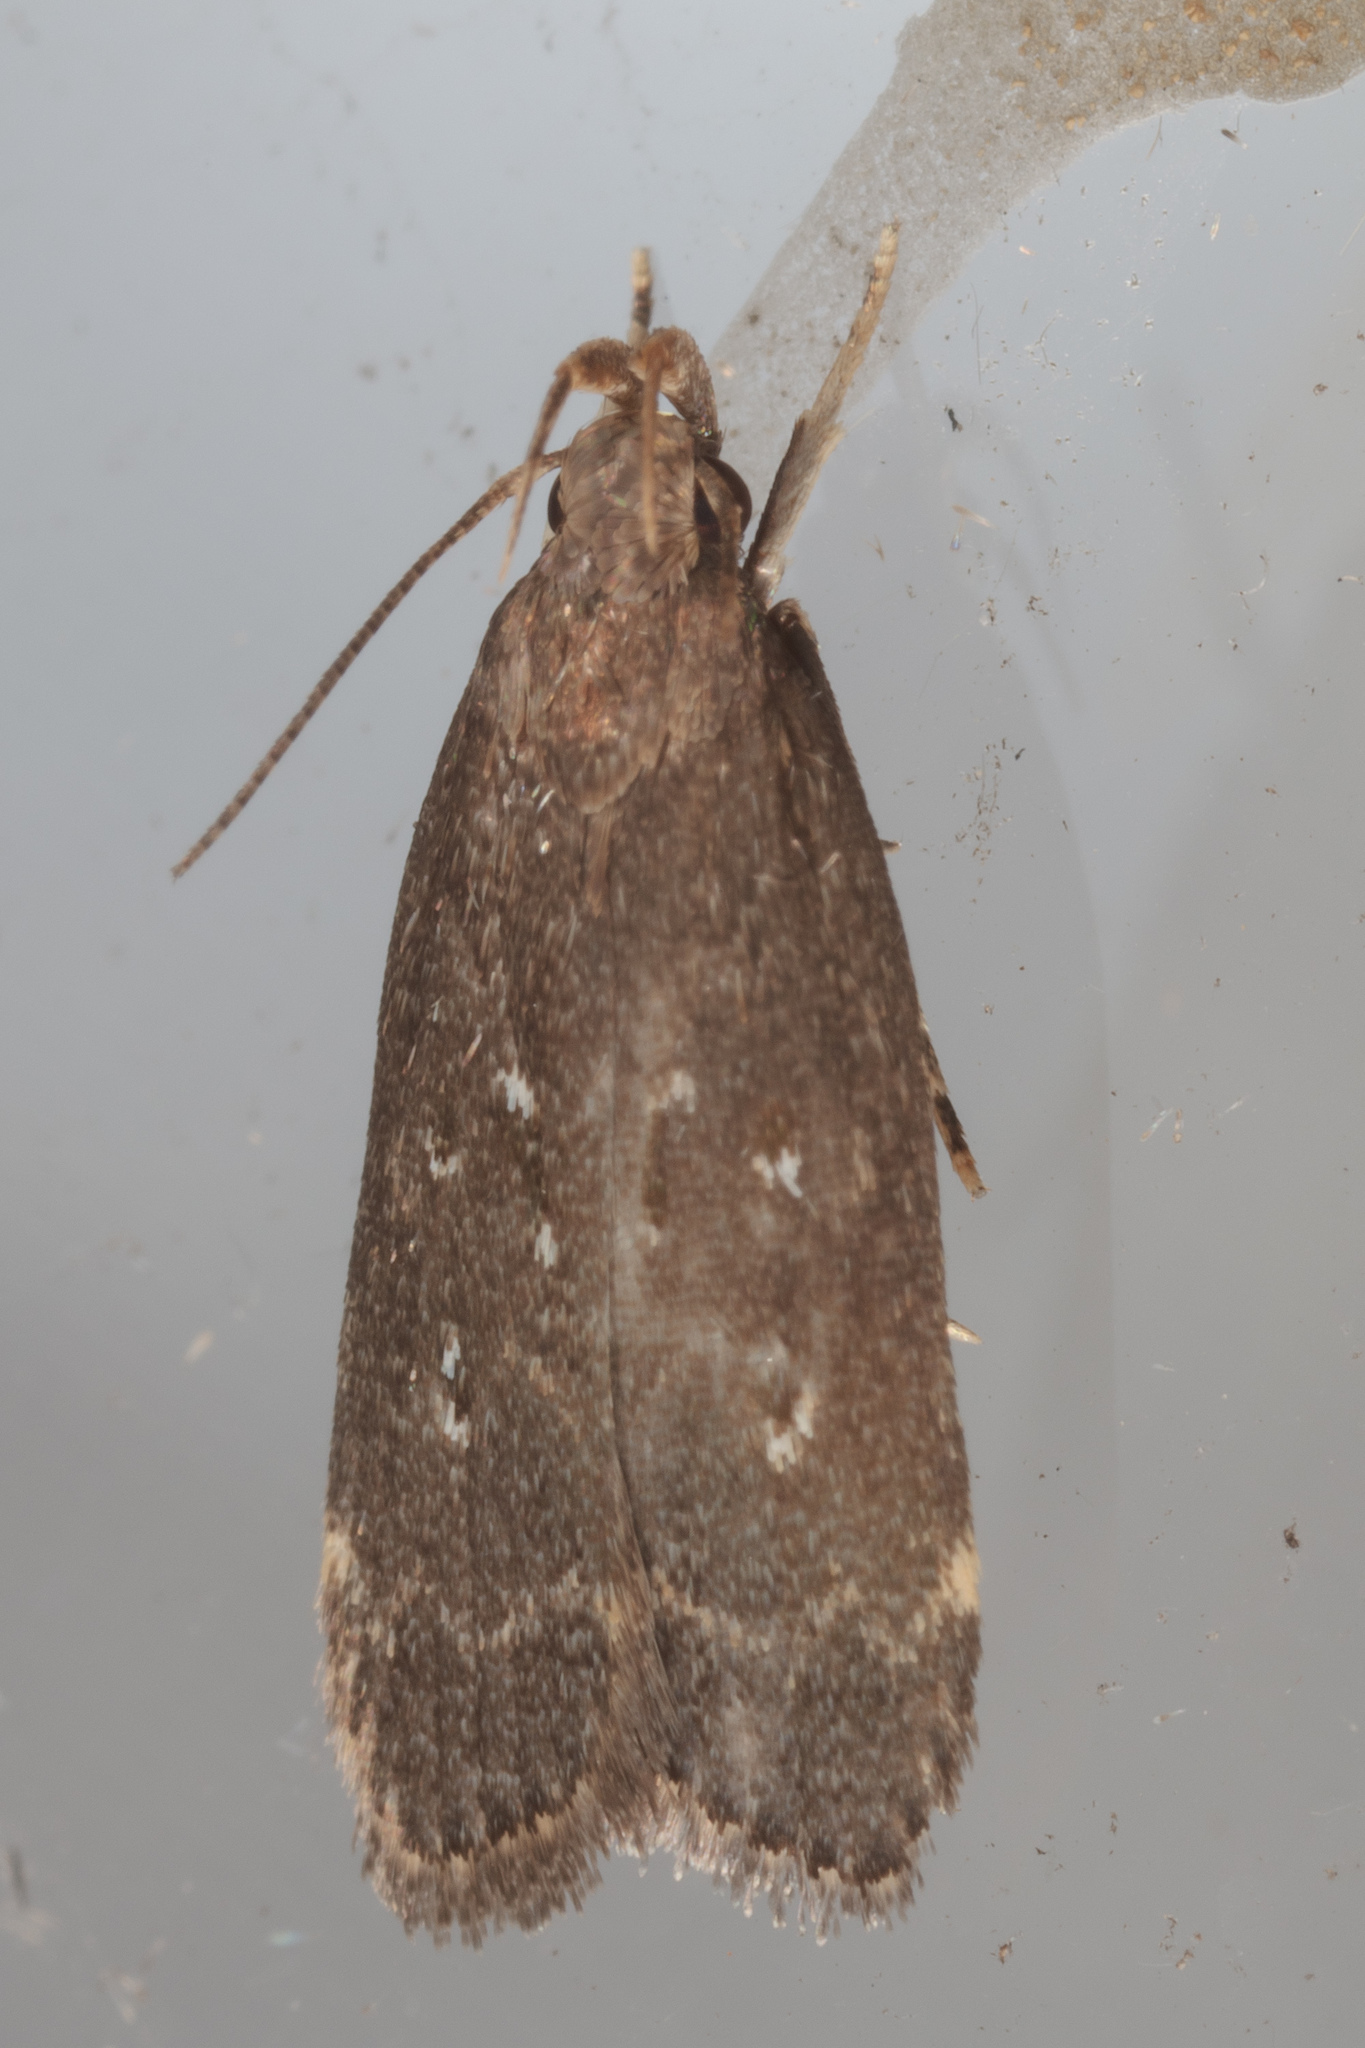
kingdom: Animalia
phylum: Arthropoda
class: Insecta
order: Lepidoptera
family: Gelechiidae
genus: Helcystogramma
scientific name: Helcystogramma melantherella
